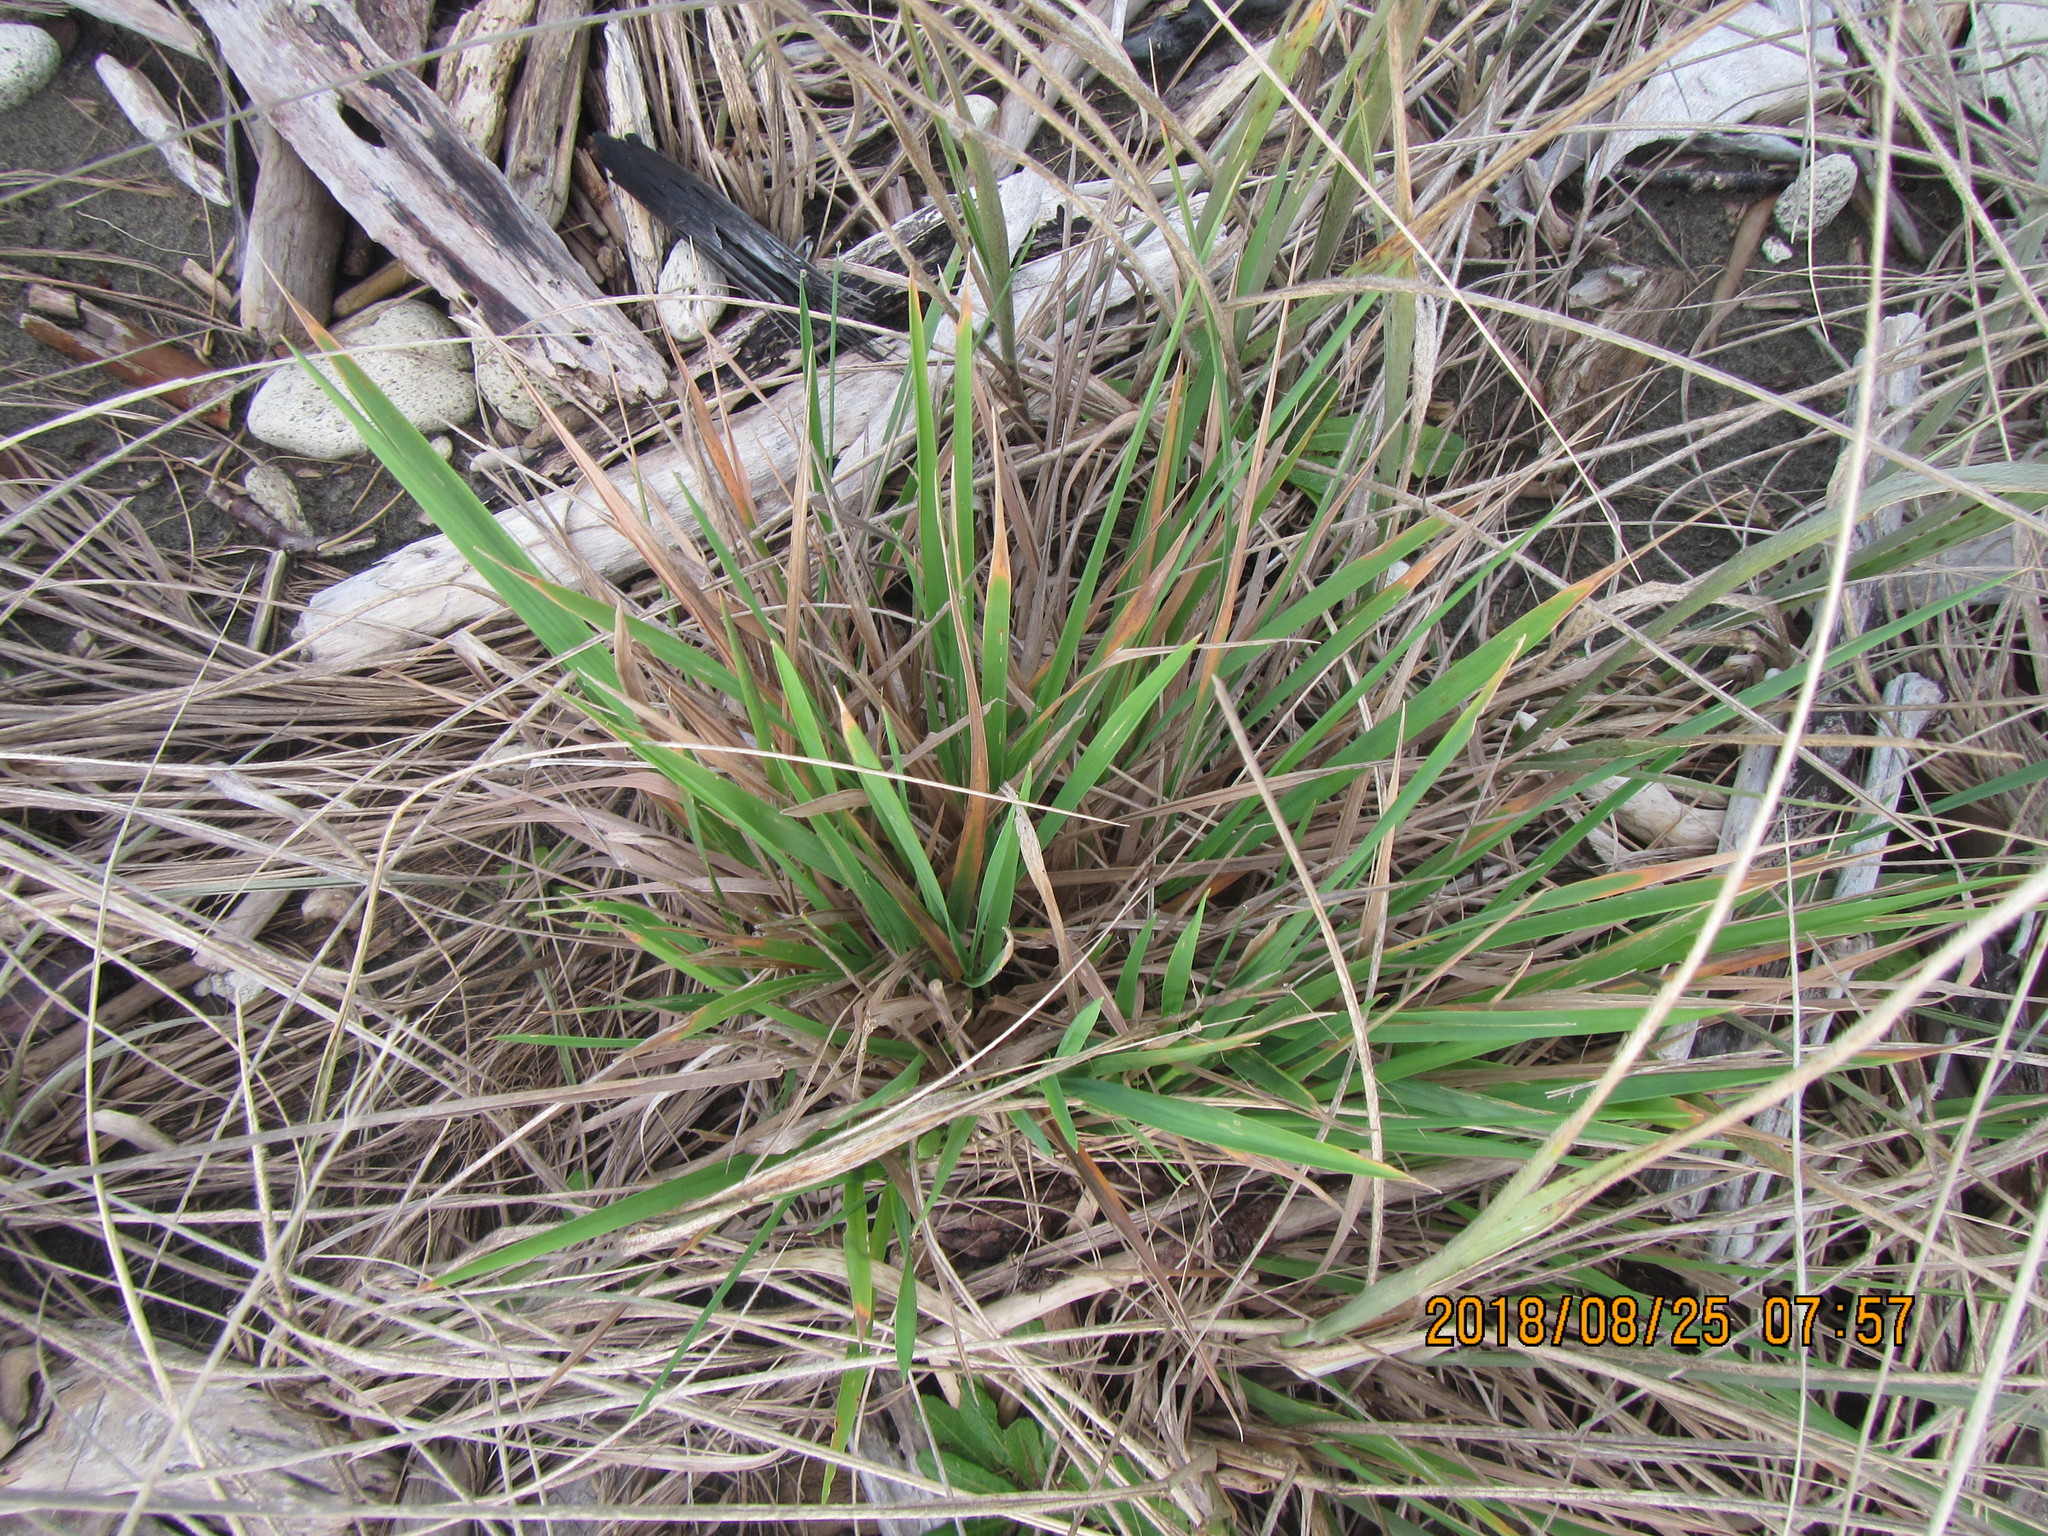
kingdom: Plantae
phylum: Tracheophyta
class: Liliopsida
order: Poales
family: Poaceae
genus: Lachnagrostis
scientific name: Lachnagrostis billardierei
